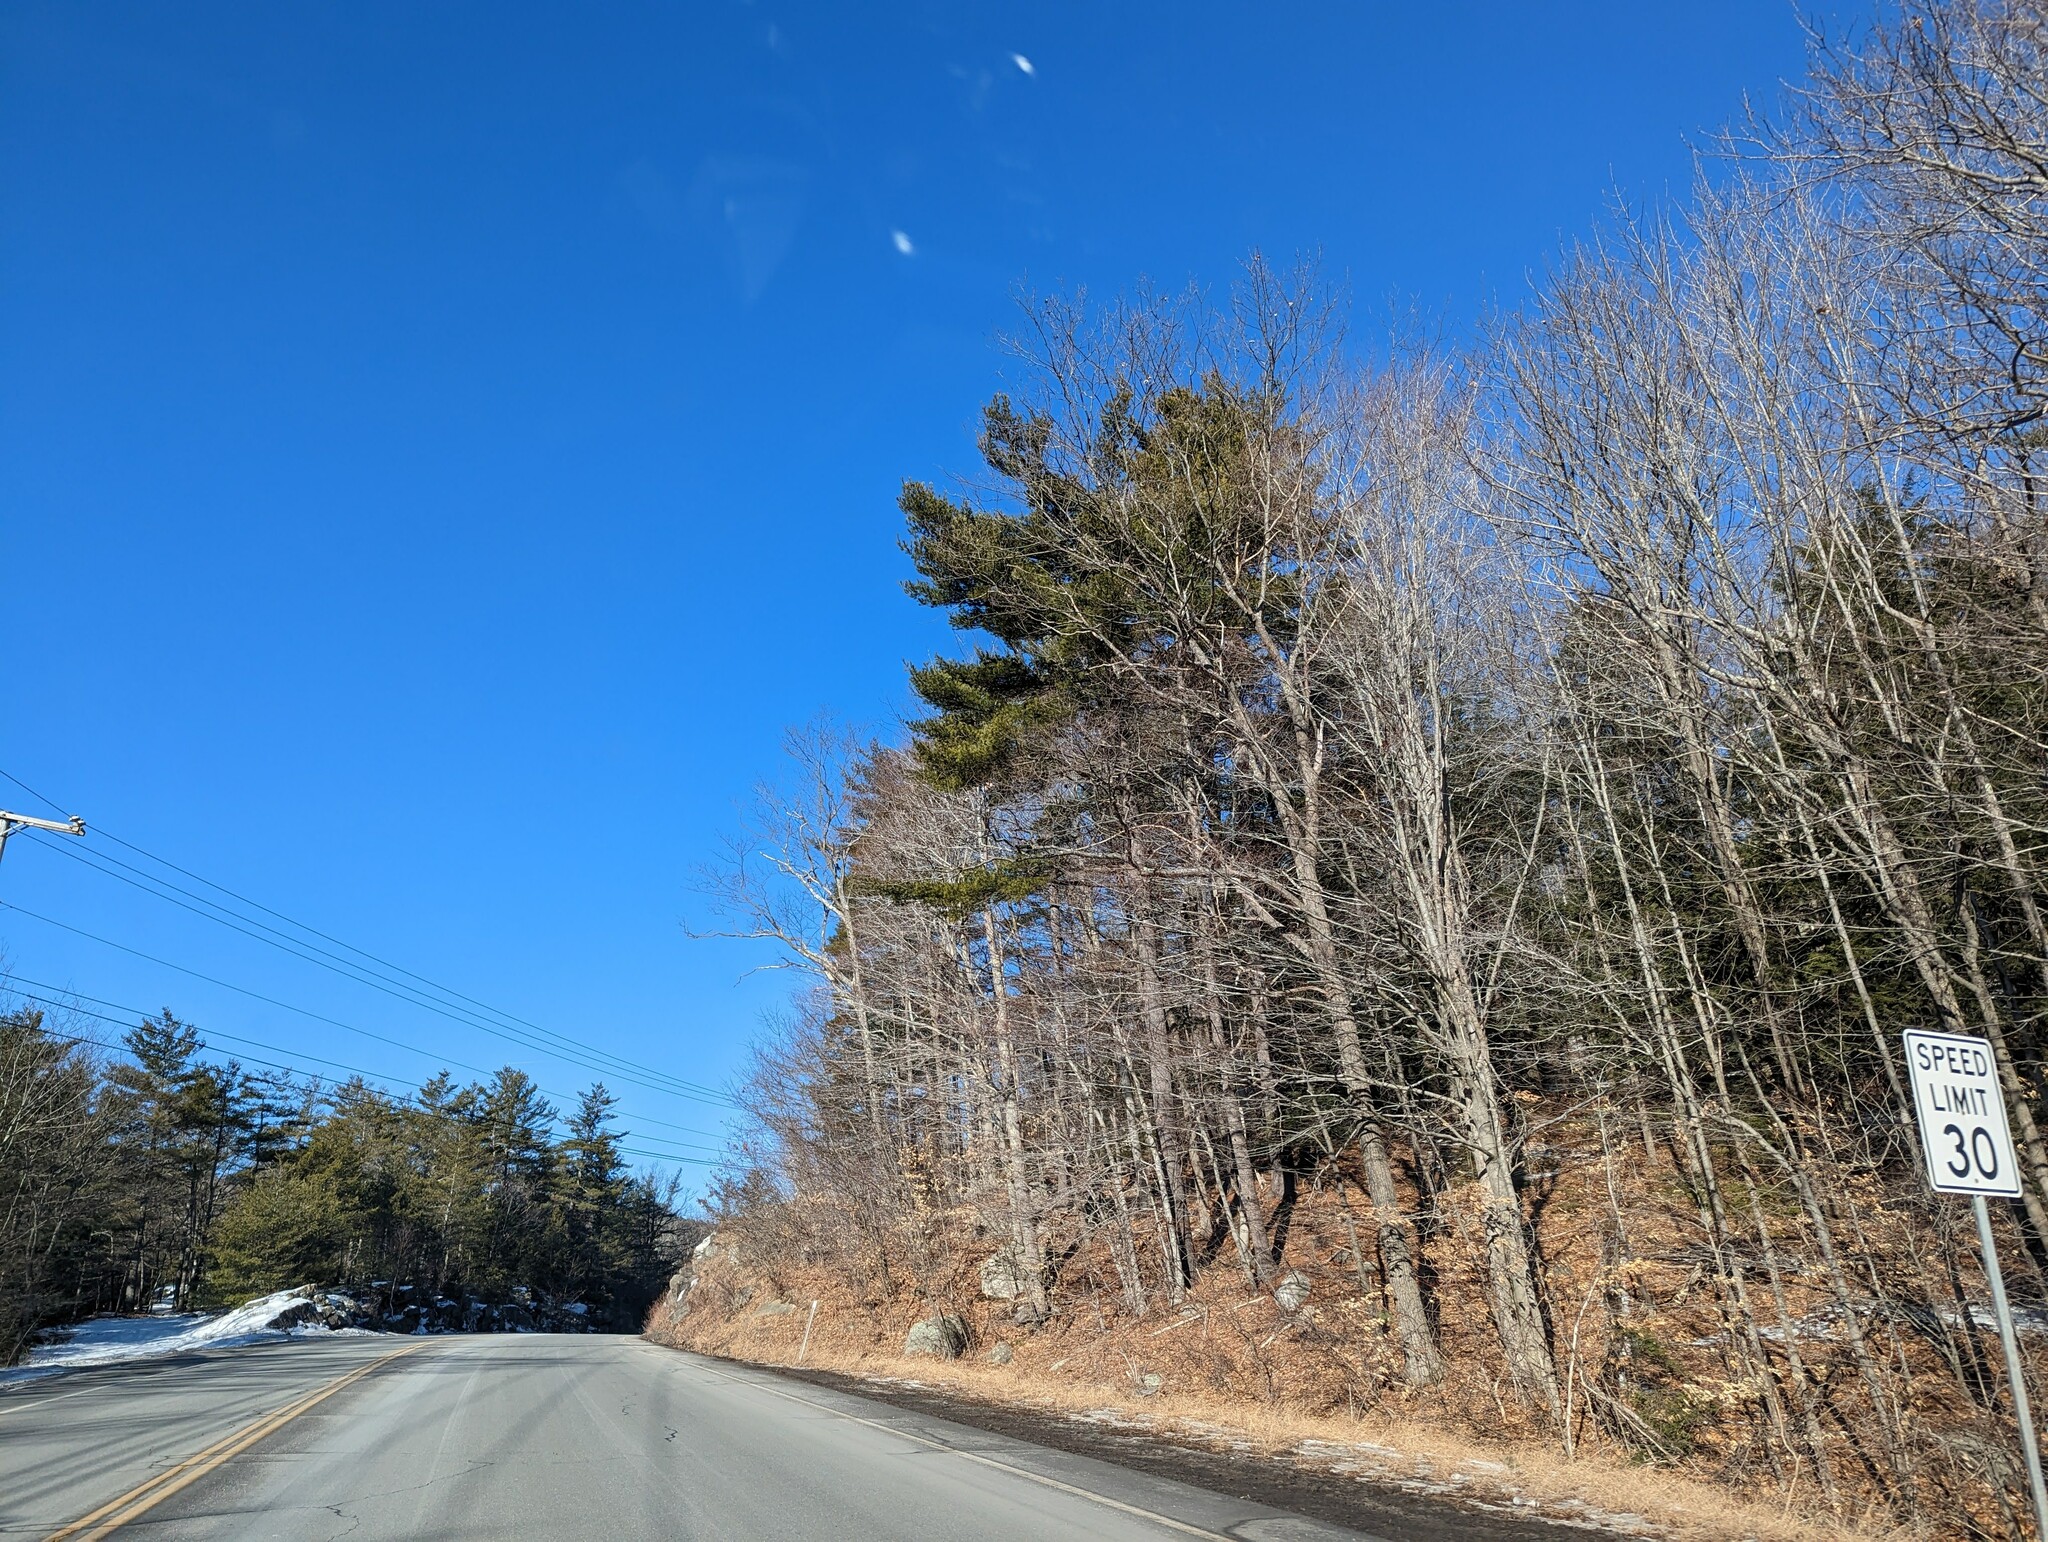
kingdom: Plantae
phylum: Tracheophyta
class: Pinopsida
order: Pinales
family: Pinaceae
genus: Pinus
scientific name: Pinus strobus
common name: Weymouth pine
